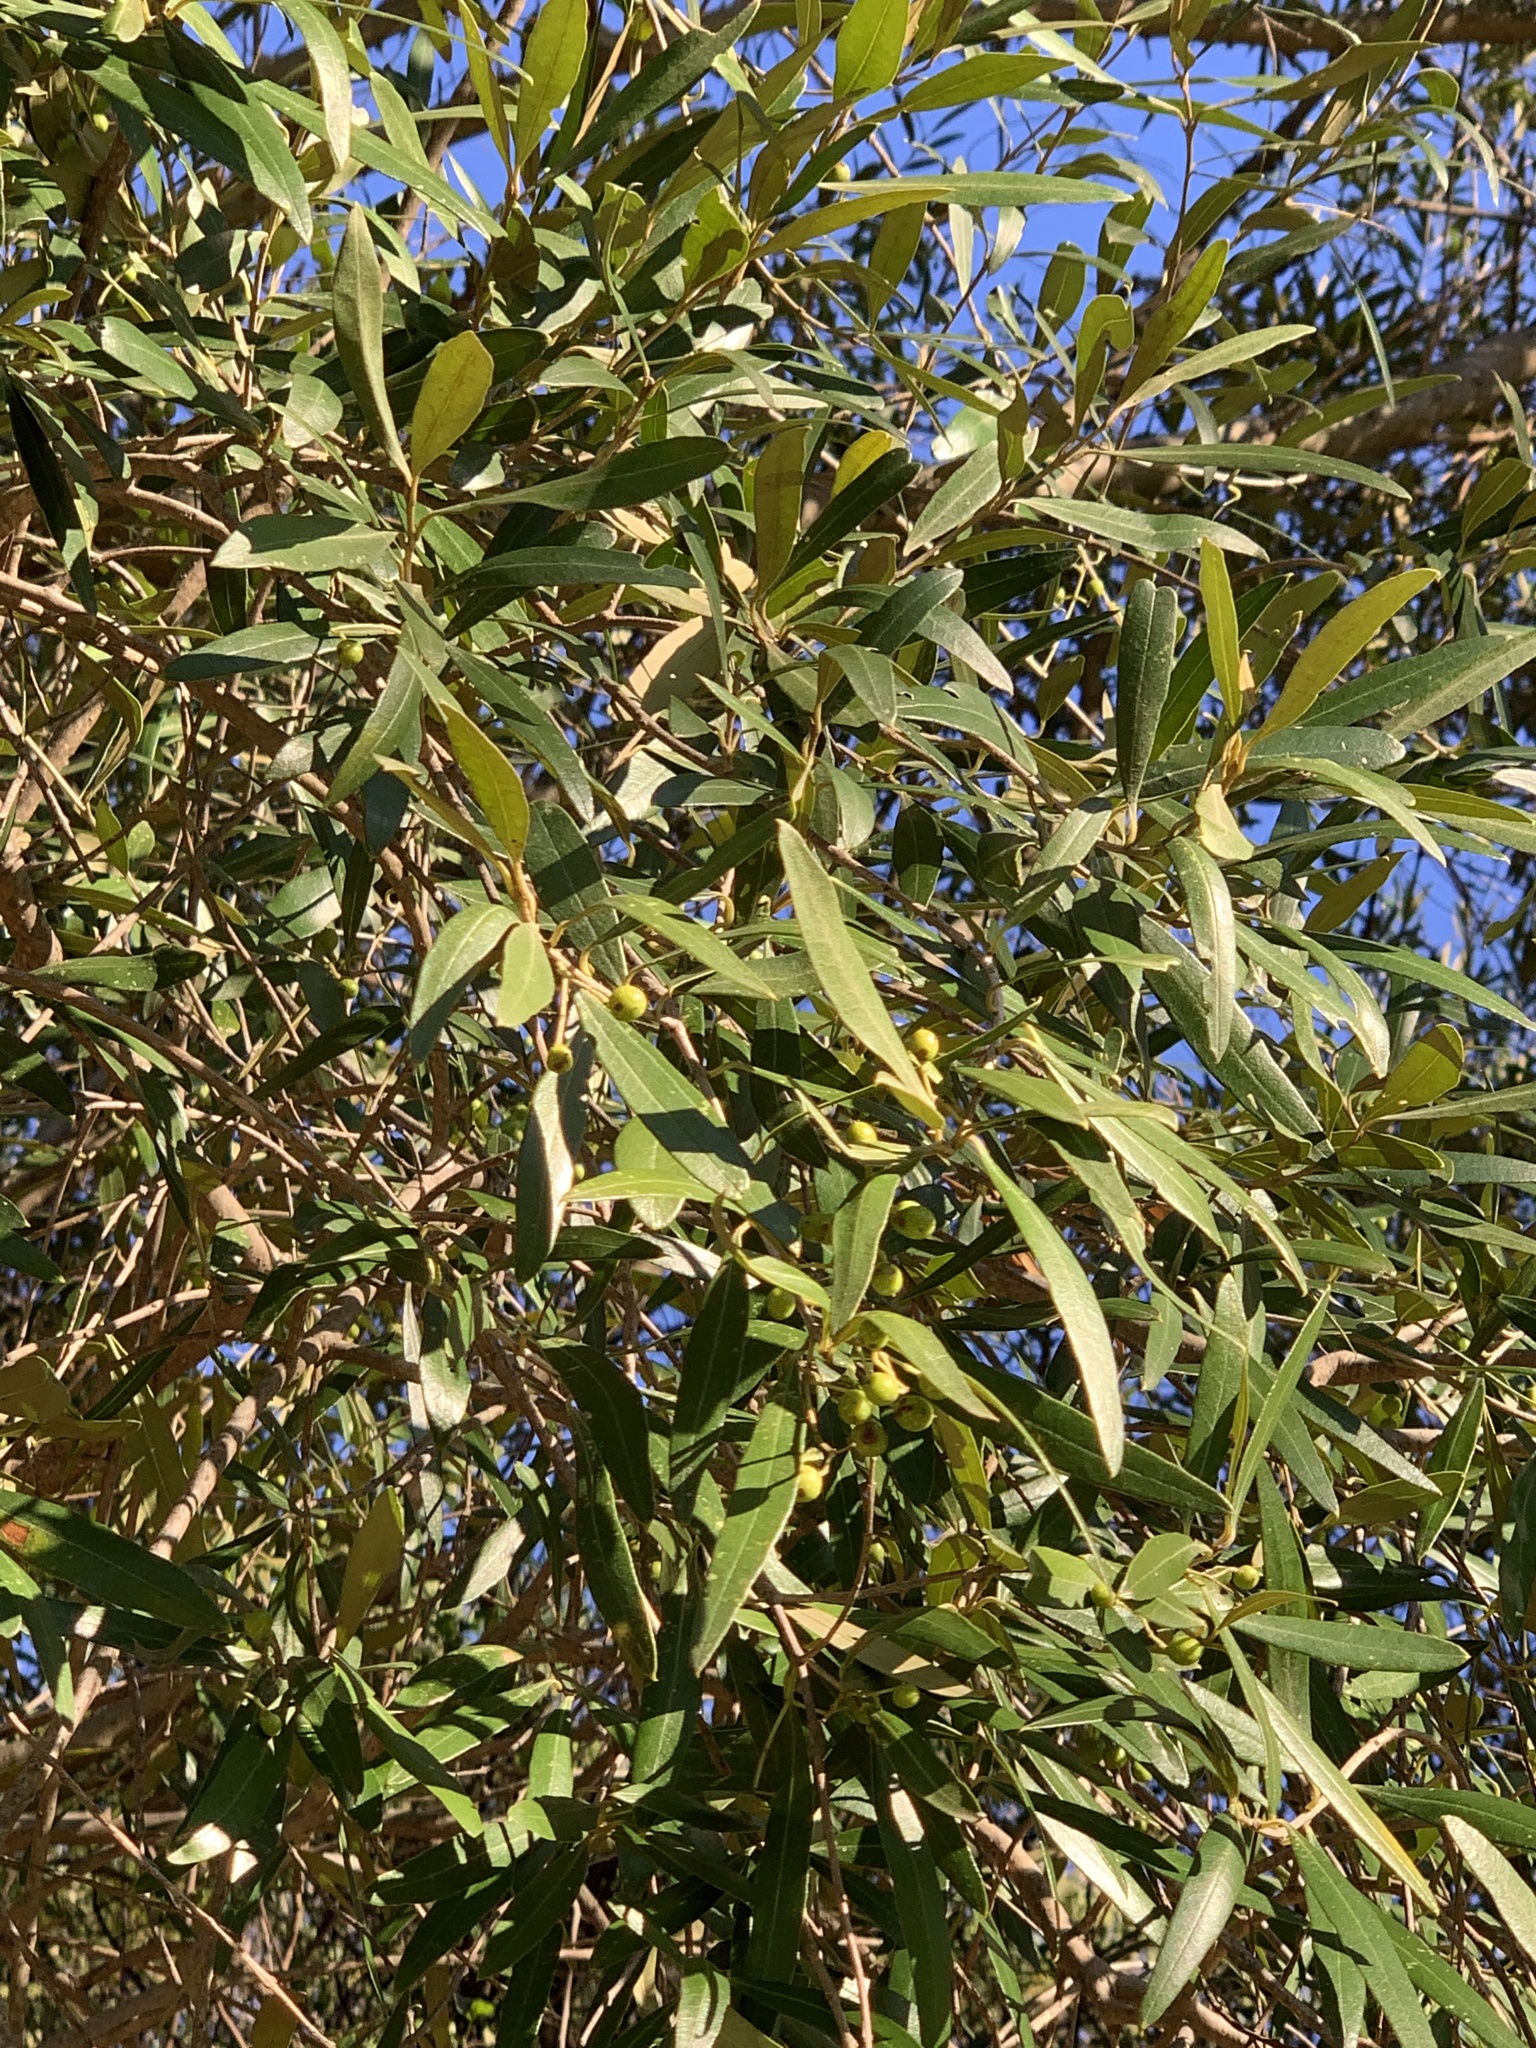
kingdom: Plantae
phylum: Tracheophyta
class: Magnoliopsida
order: Lamiales
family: Oleaceae
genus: Olea
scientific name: Olea europaea
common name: Olive
